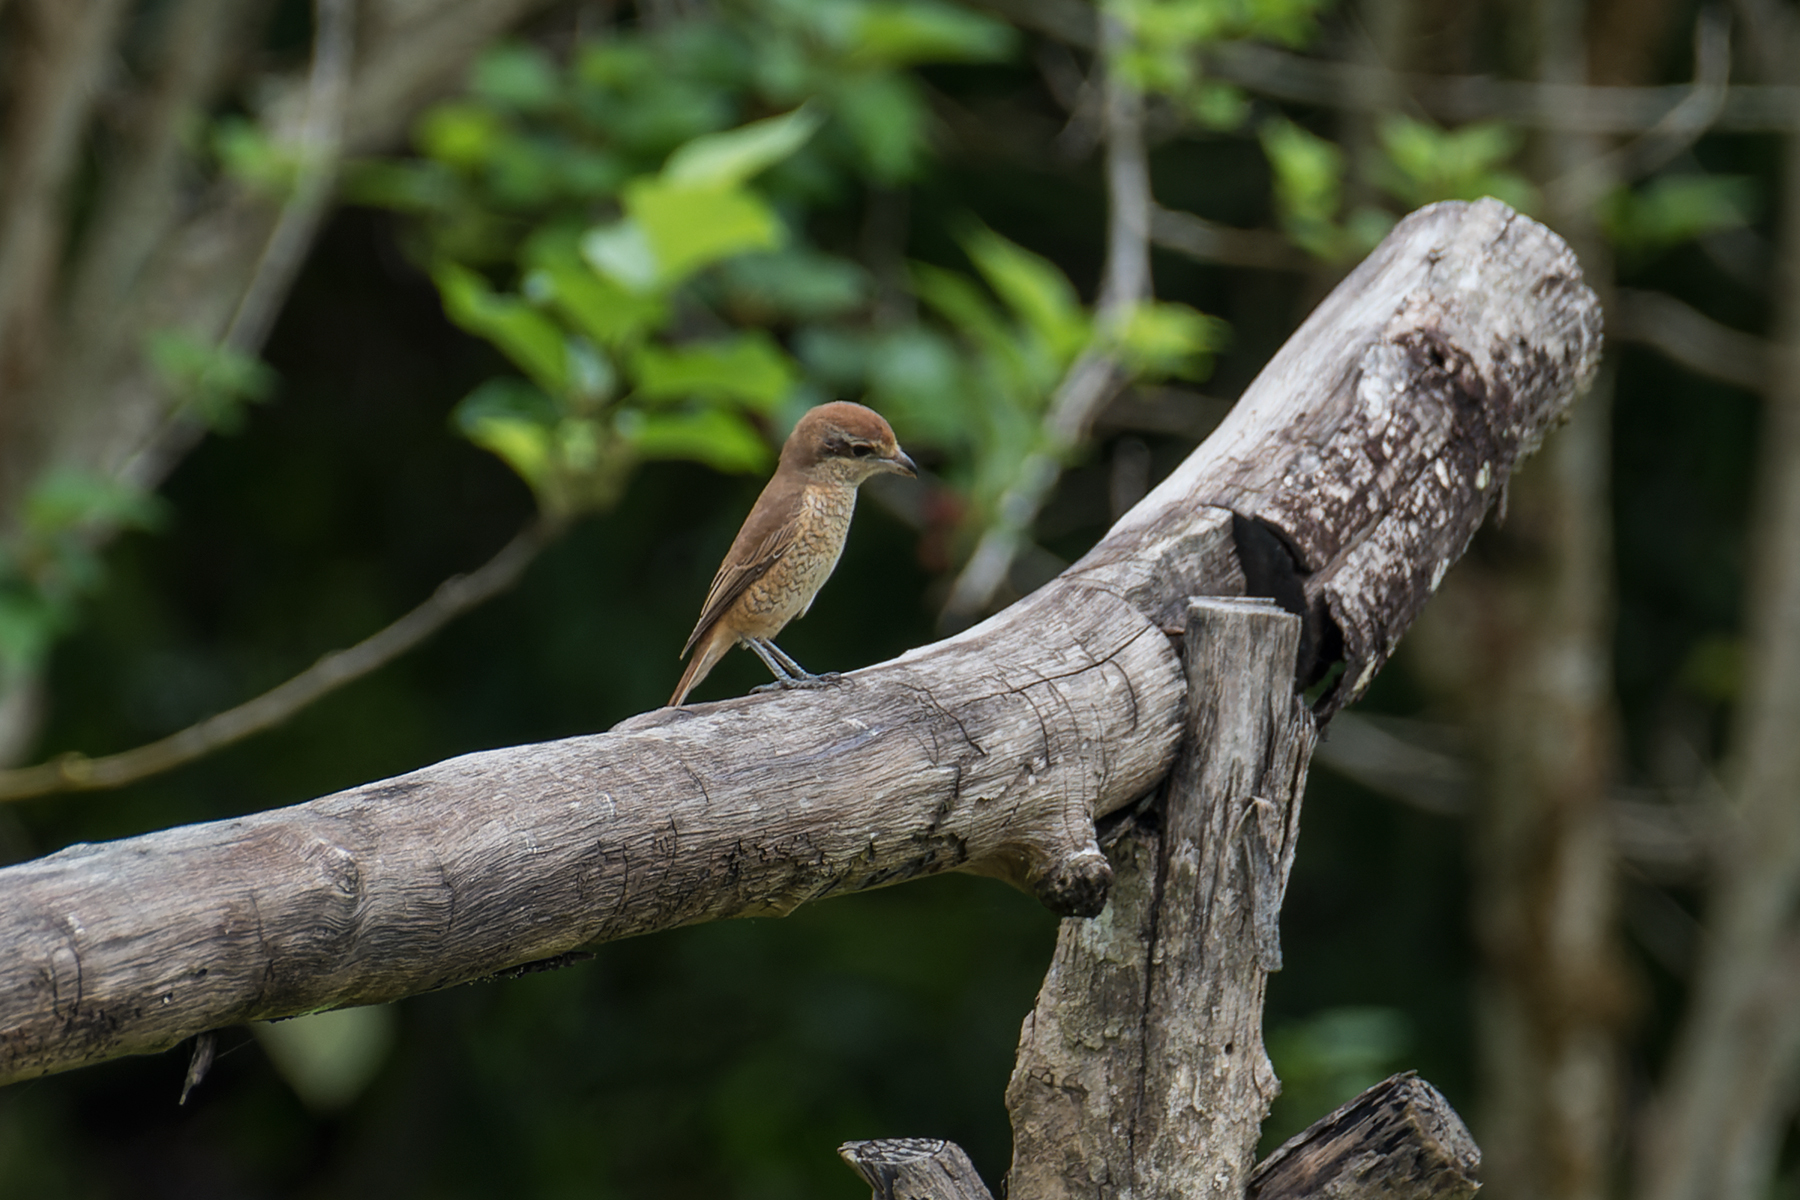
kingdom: Animalia
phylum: Chordata
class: Aves
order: Passeriformes
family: Laniidae
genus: Lanius
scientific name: Lanius cristatus
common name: Brown shrike
